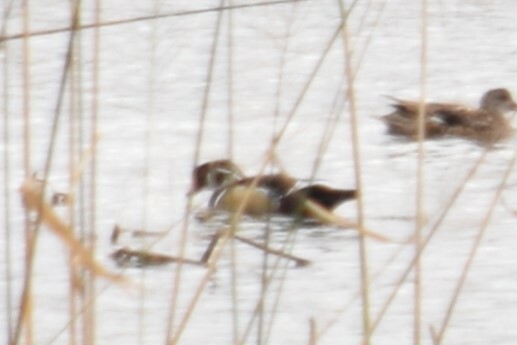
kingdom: Animalia
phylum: Chordata
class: Aves
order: Anseriformes
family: Anatidae
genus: Aix
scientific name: Aix sponsa
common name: Wood duck
